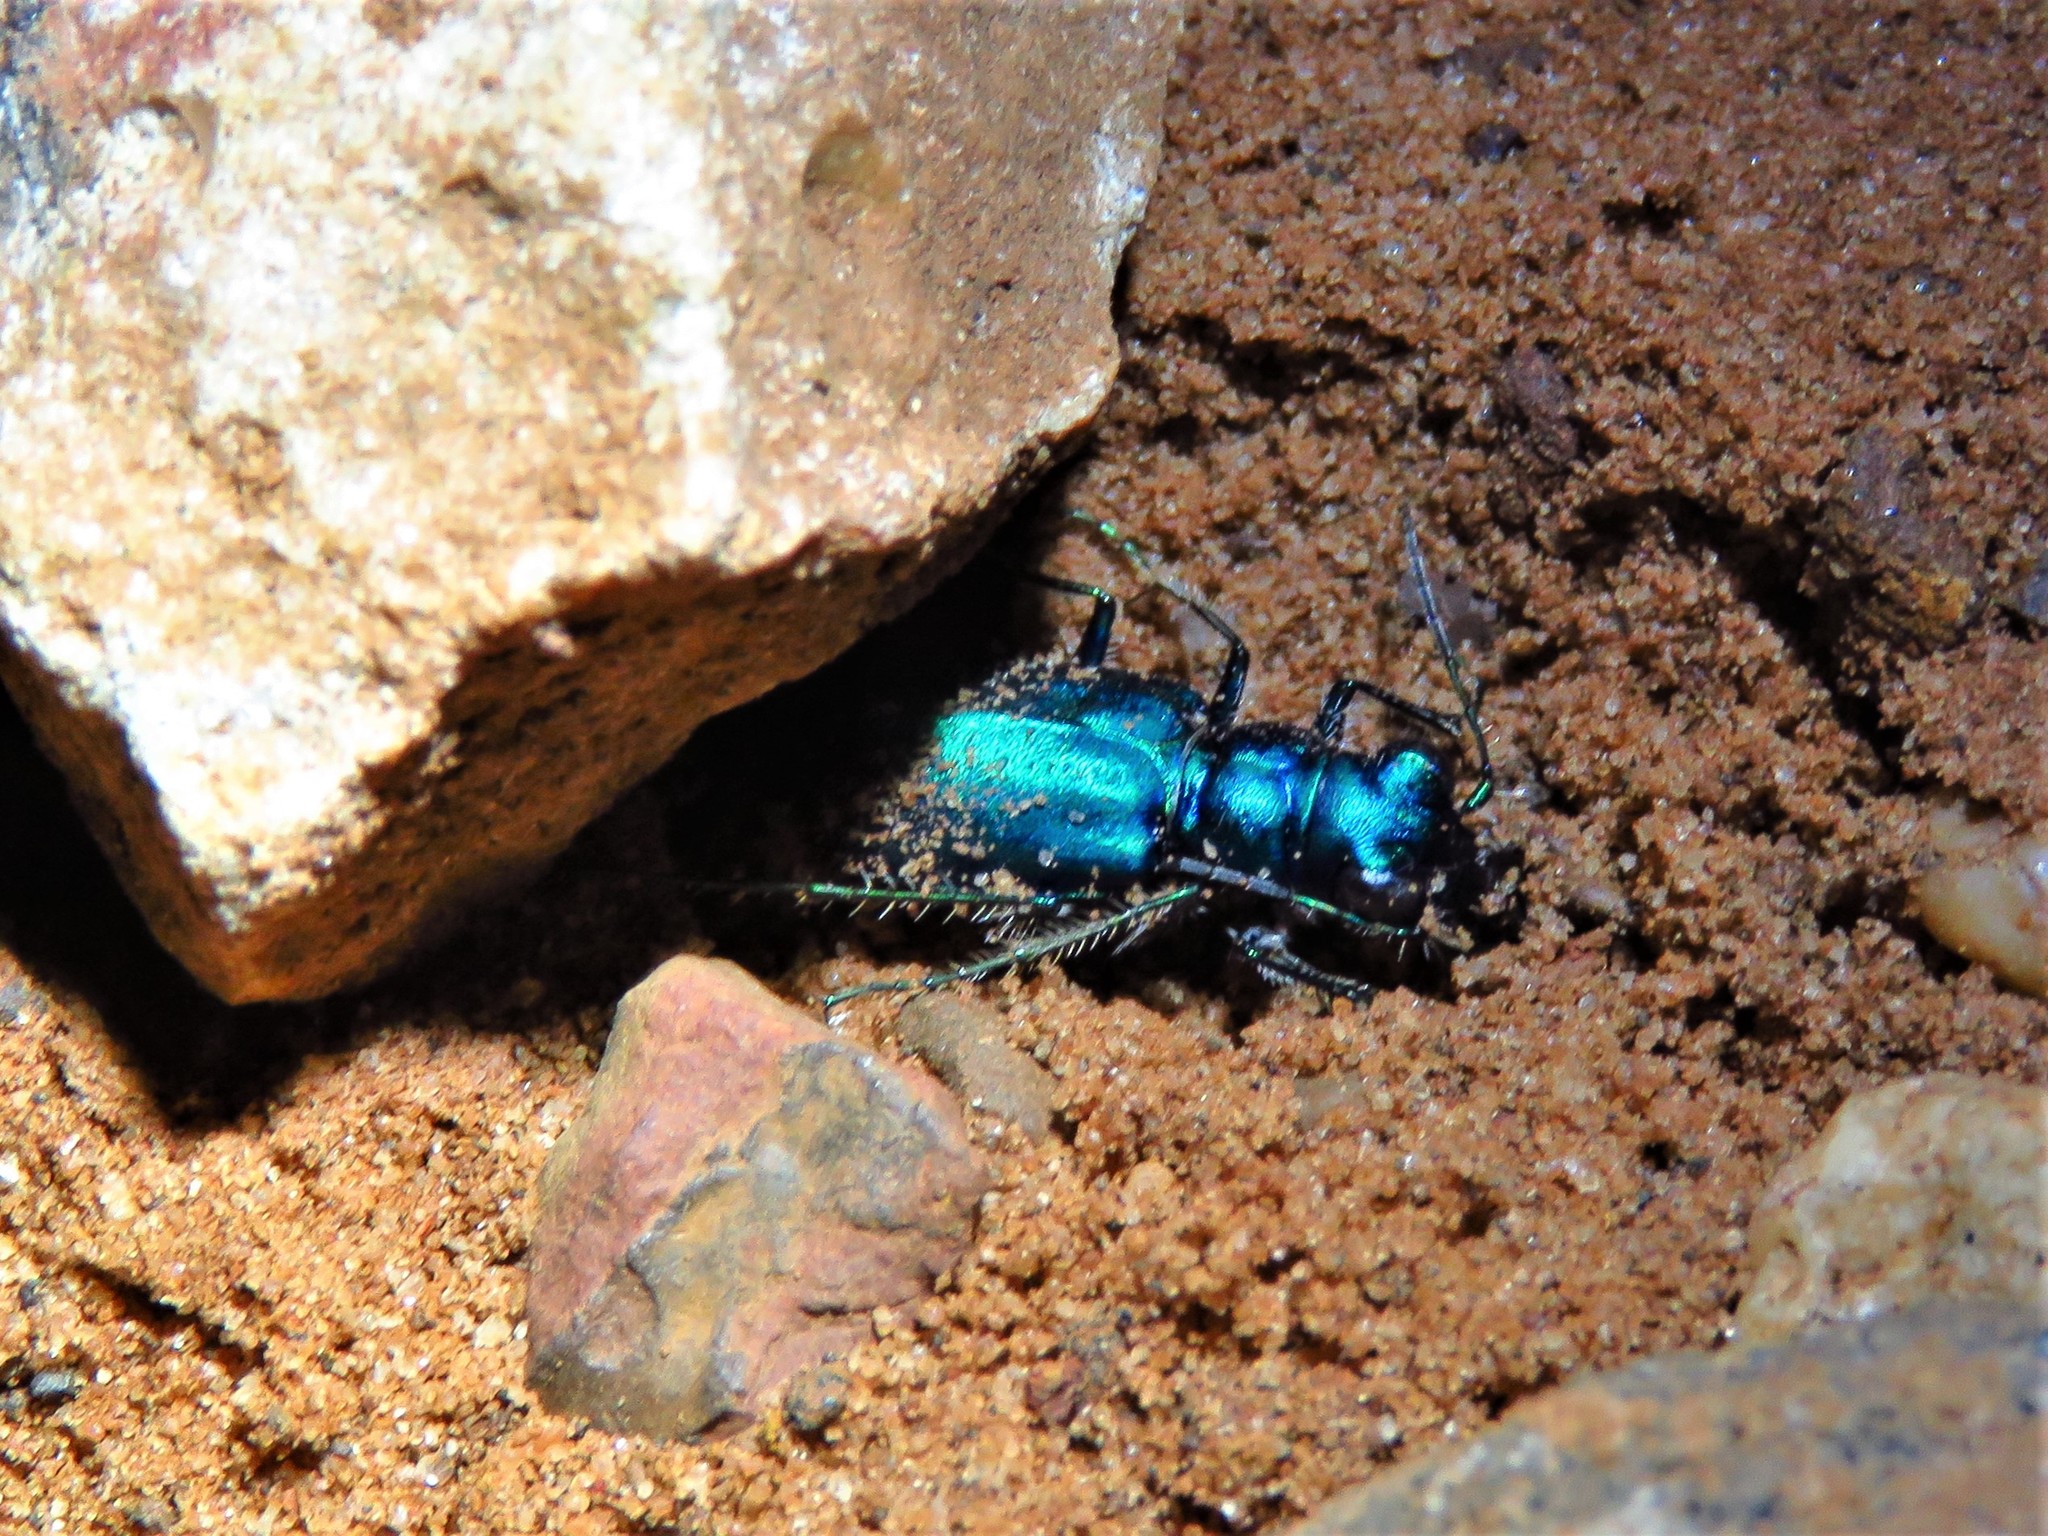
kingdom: Animalia
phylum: Arthropoda
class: Insecta
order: Coleoptera
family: Carabidae
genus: Cicindela
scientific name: Cicindela scutellaris
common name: Festive tiger beetle
